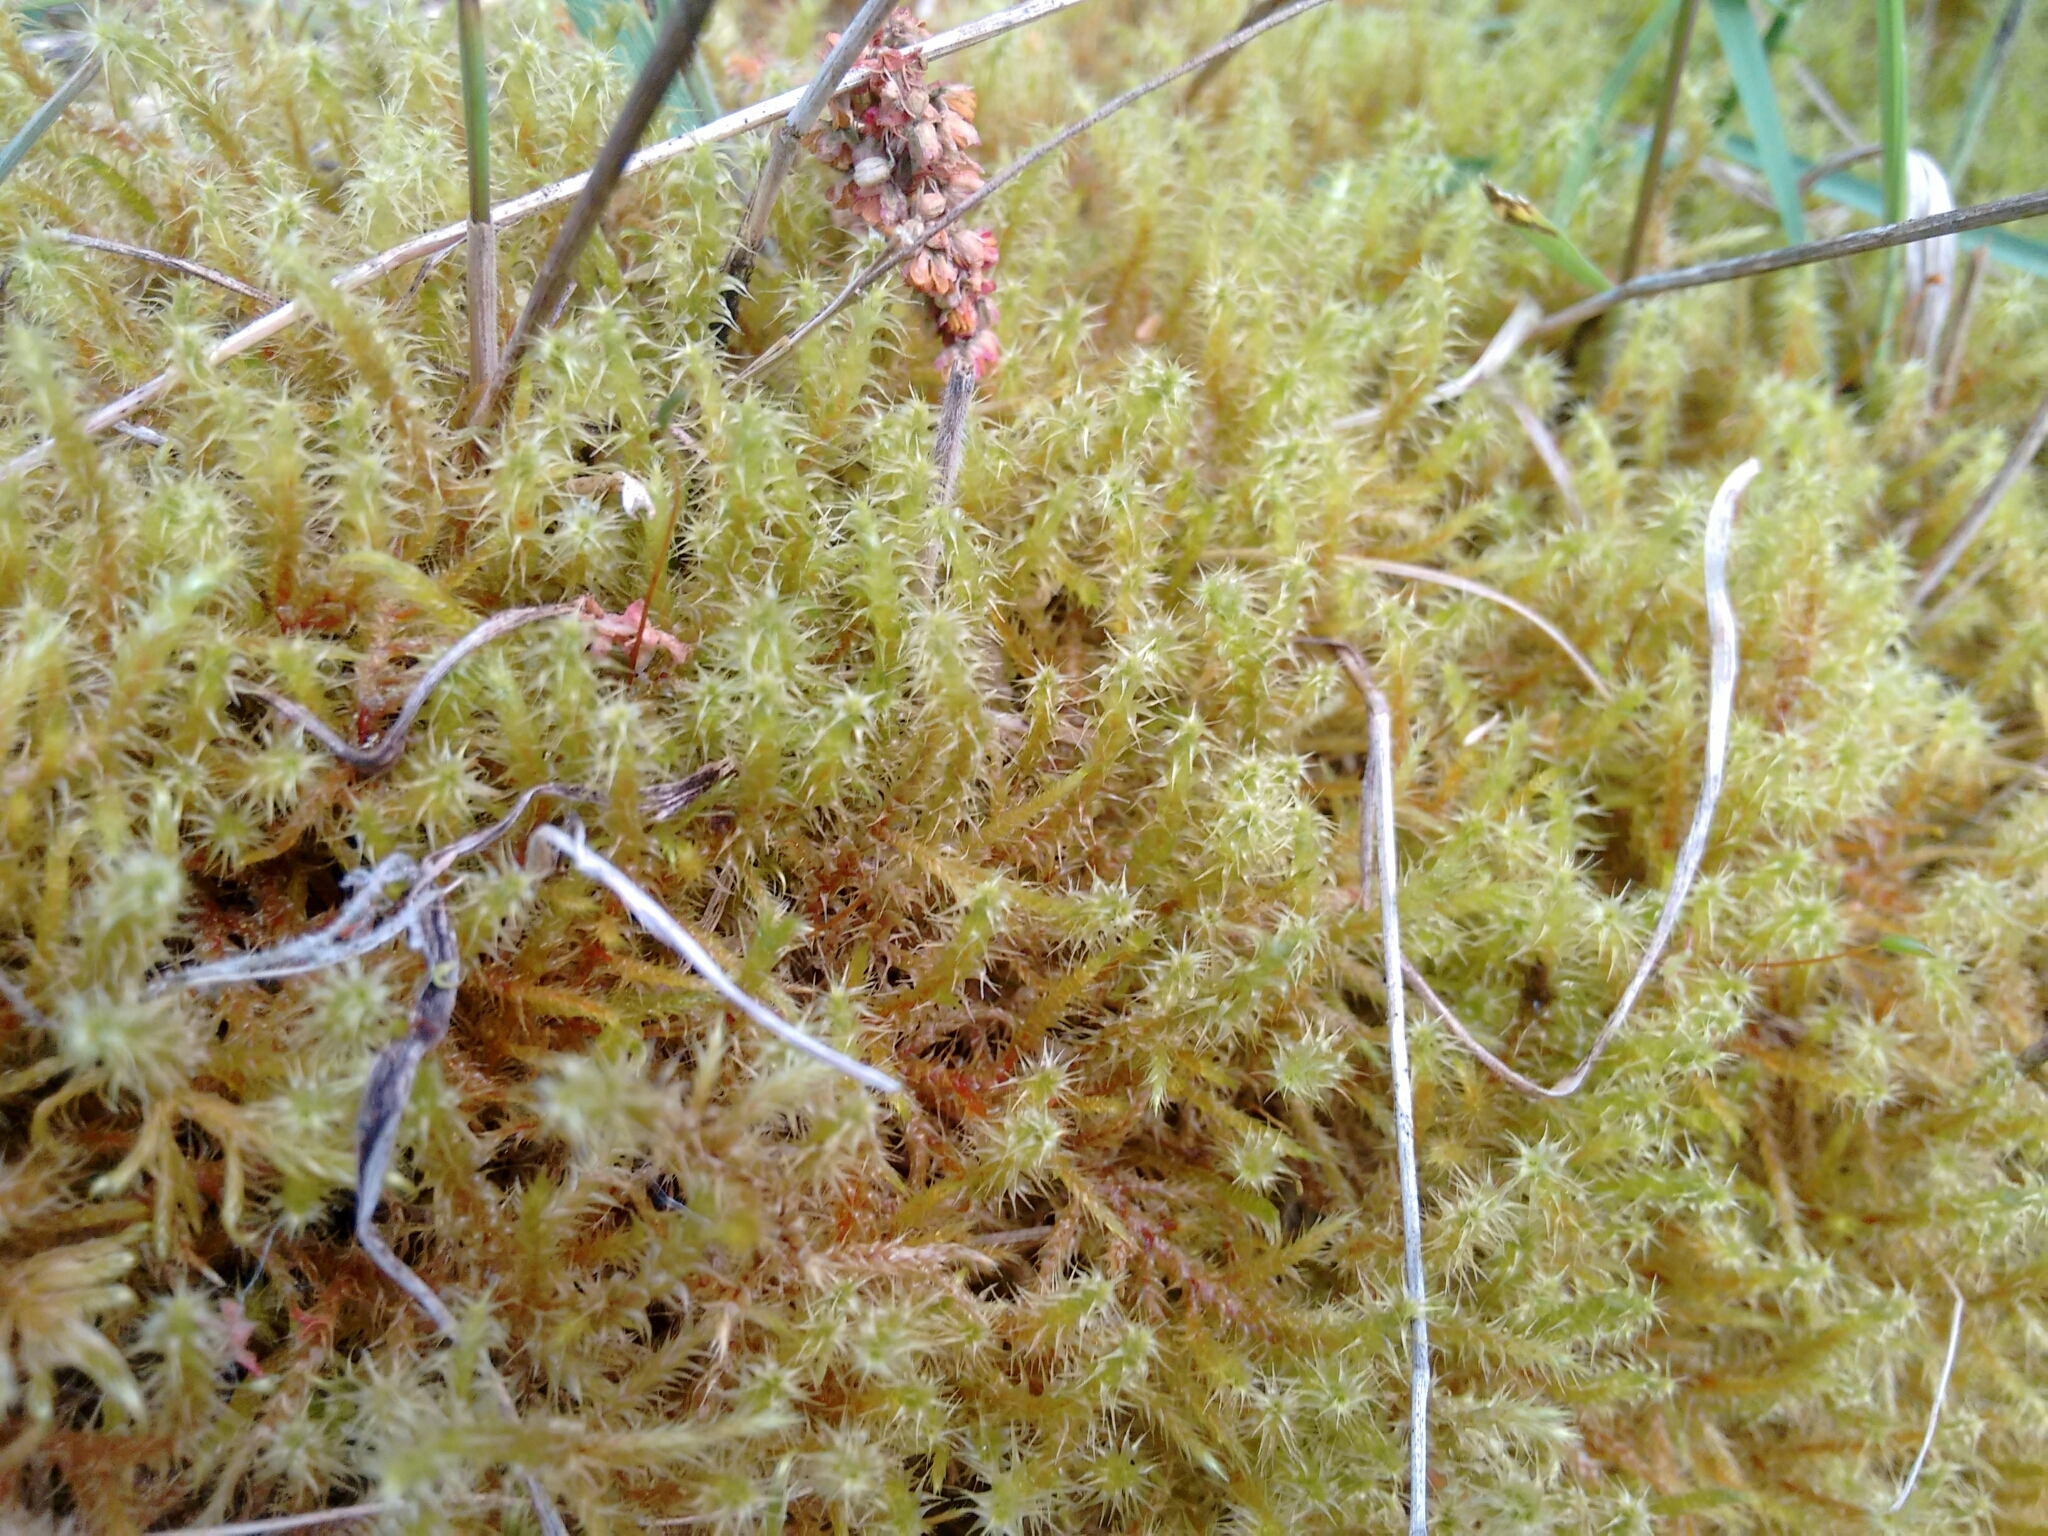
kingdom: Plantae
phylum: Bryophyta
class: Bryopsida
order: Hypnales
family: Hylocomiaceae
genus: Rhytidiadelphus
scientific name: Rhytidiadelphus squarrosus
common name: Springy turf-moss
